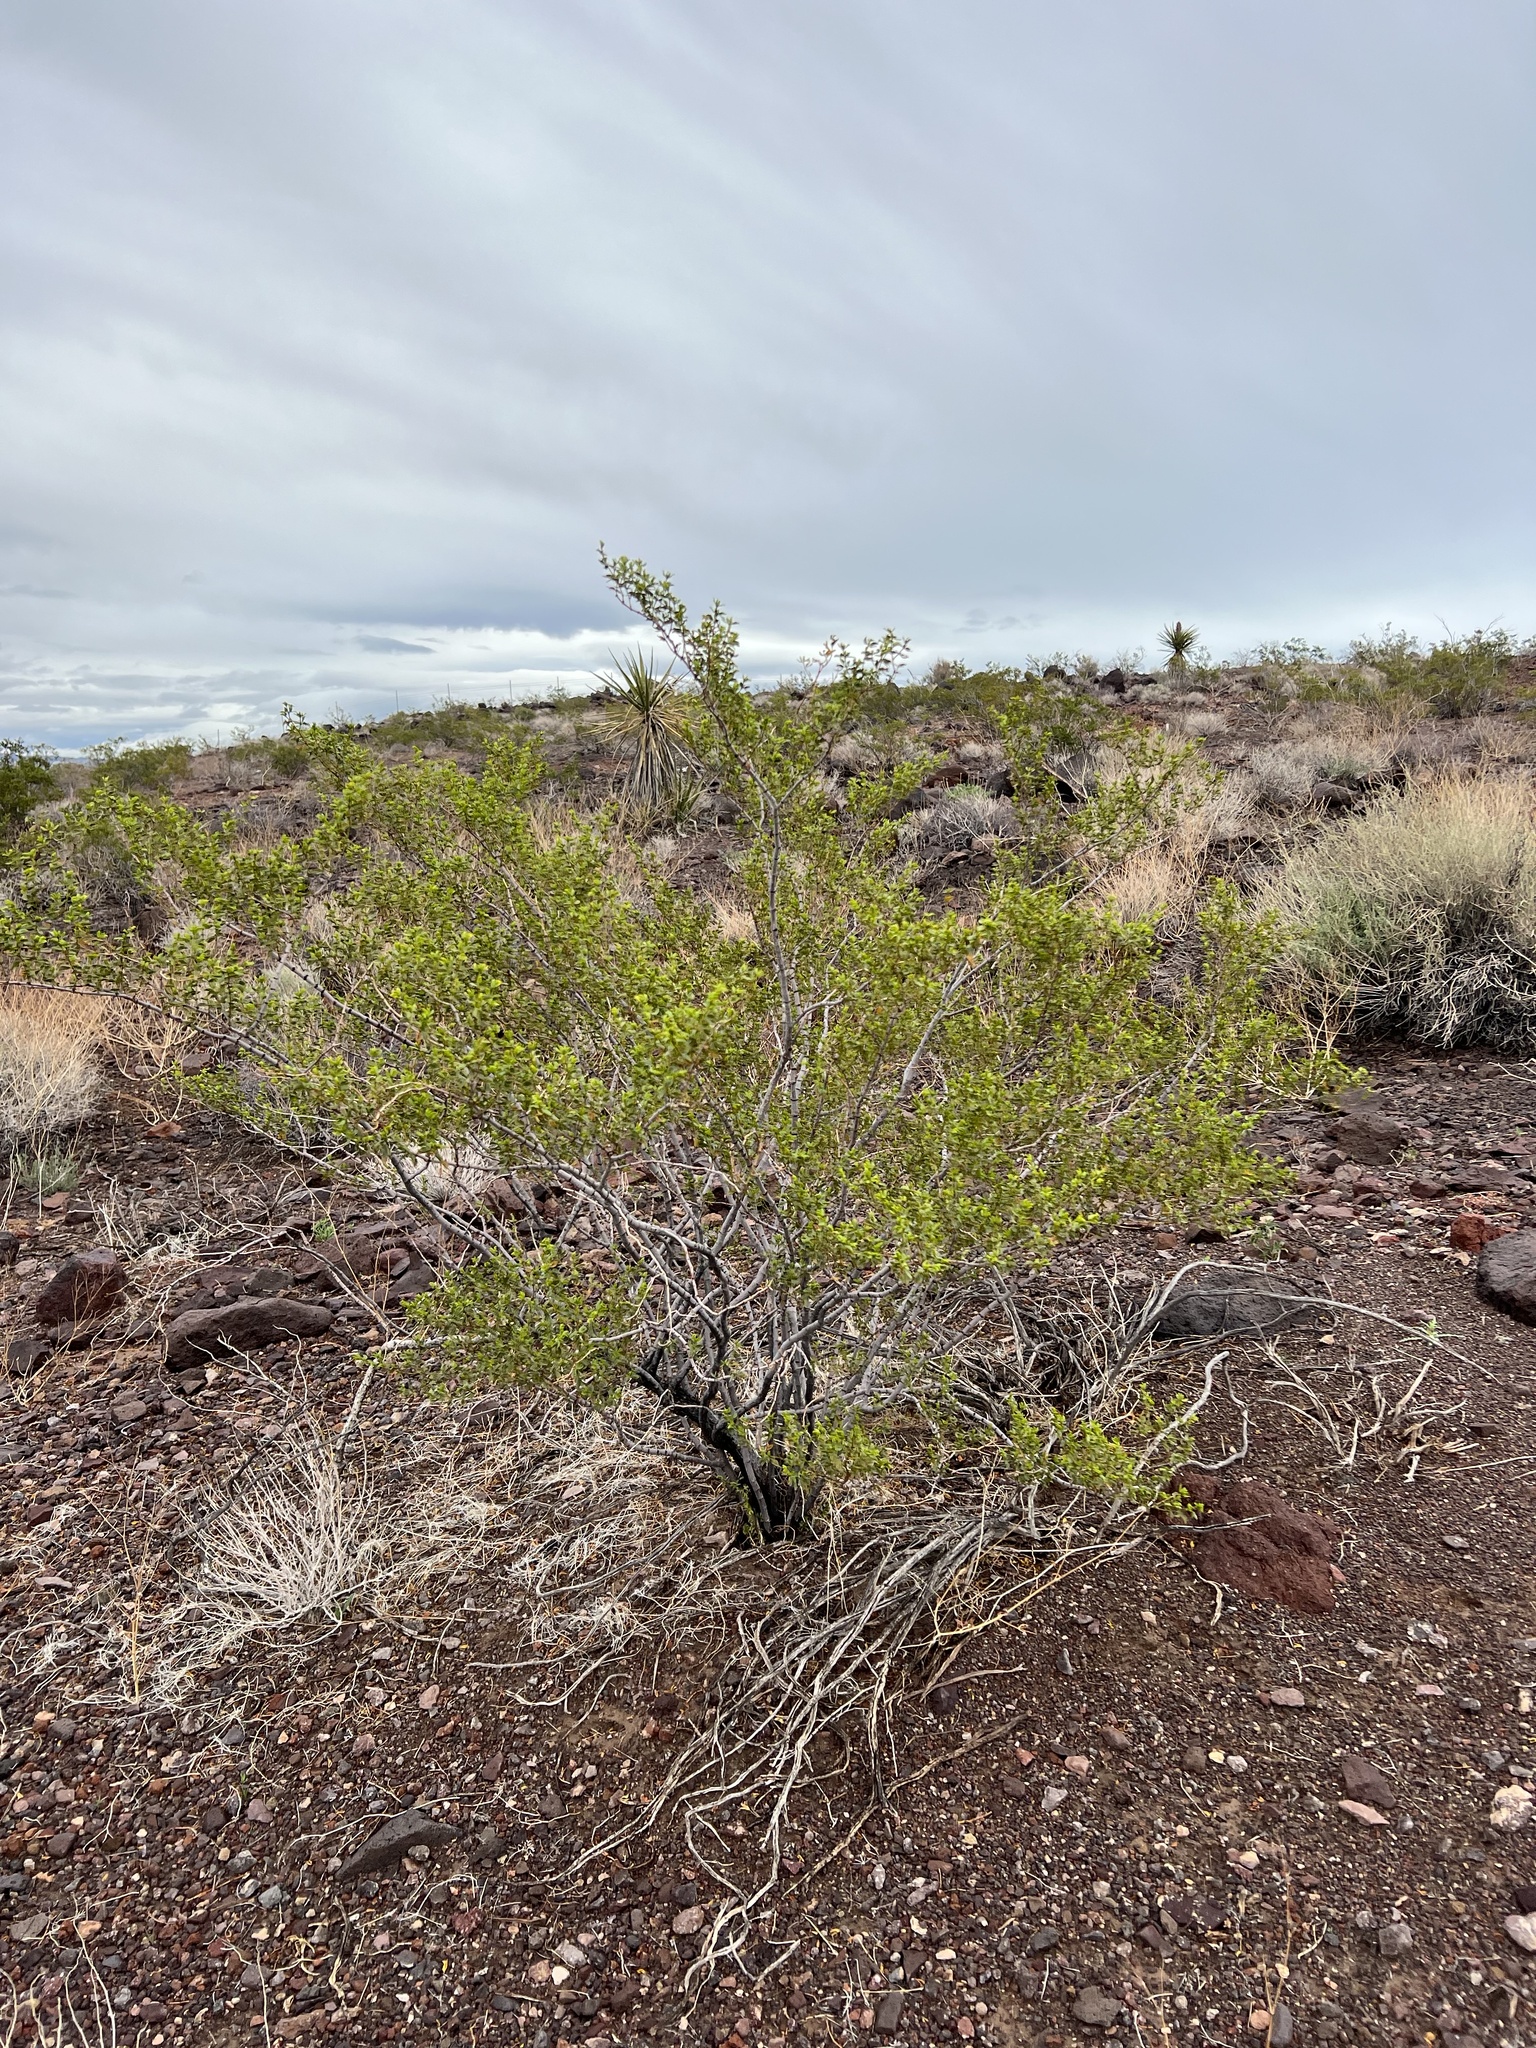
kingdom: Plantae
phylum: Tracheophyta
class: Magnoliopsida
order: Zygophyllales
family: Zygophyllaceae
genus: Larrea
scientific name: Larrea tridentata
